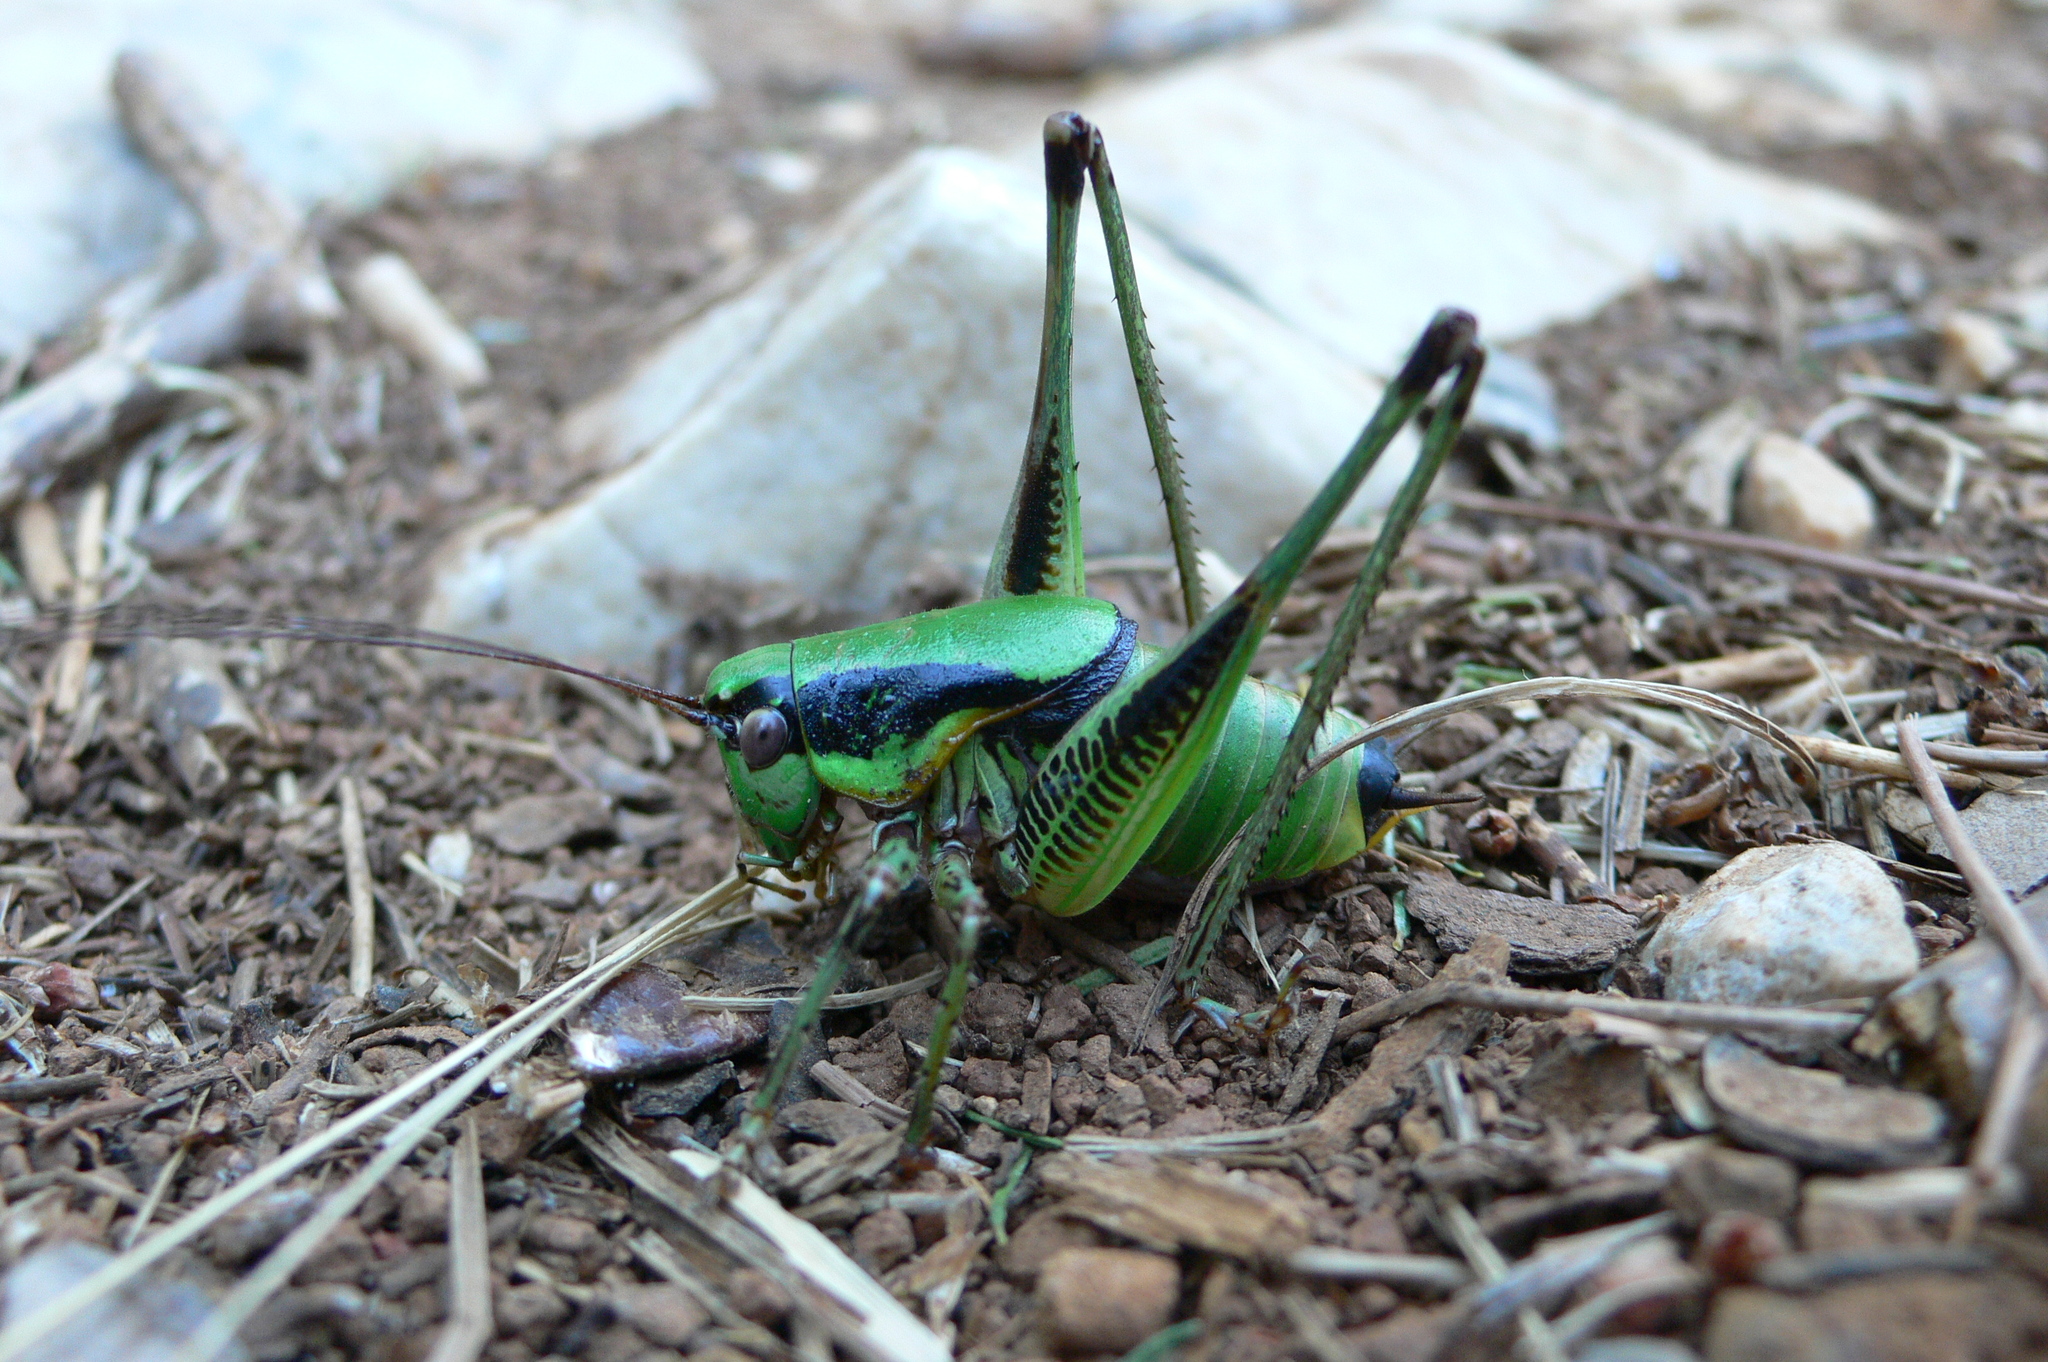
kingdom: Animalia
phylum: Arthropoda
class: Insecta
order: Orthoptera
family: Tettigoniidae
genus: Eupholidoptera
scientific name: Eupholidoptera schmidti
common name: Schmidt's marbled bush-cricket
